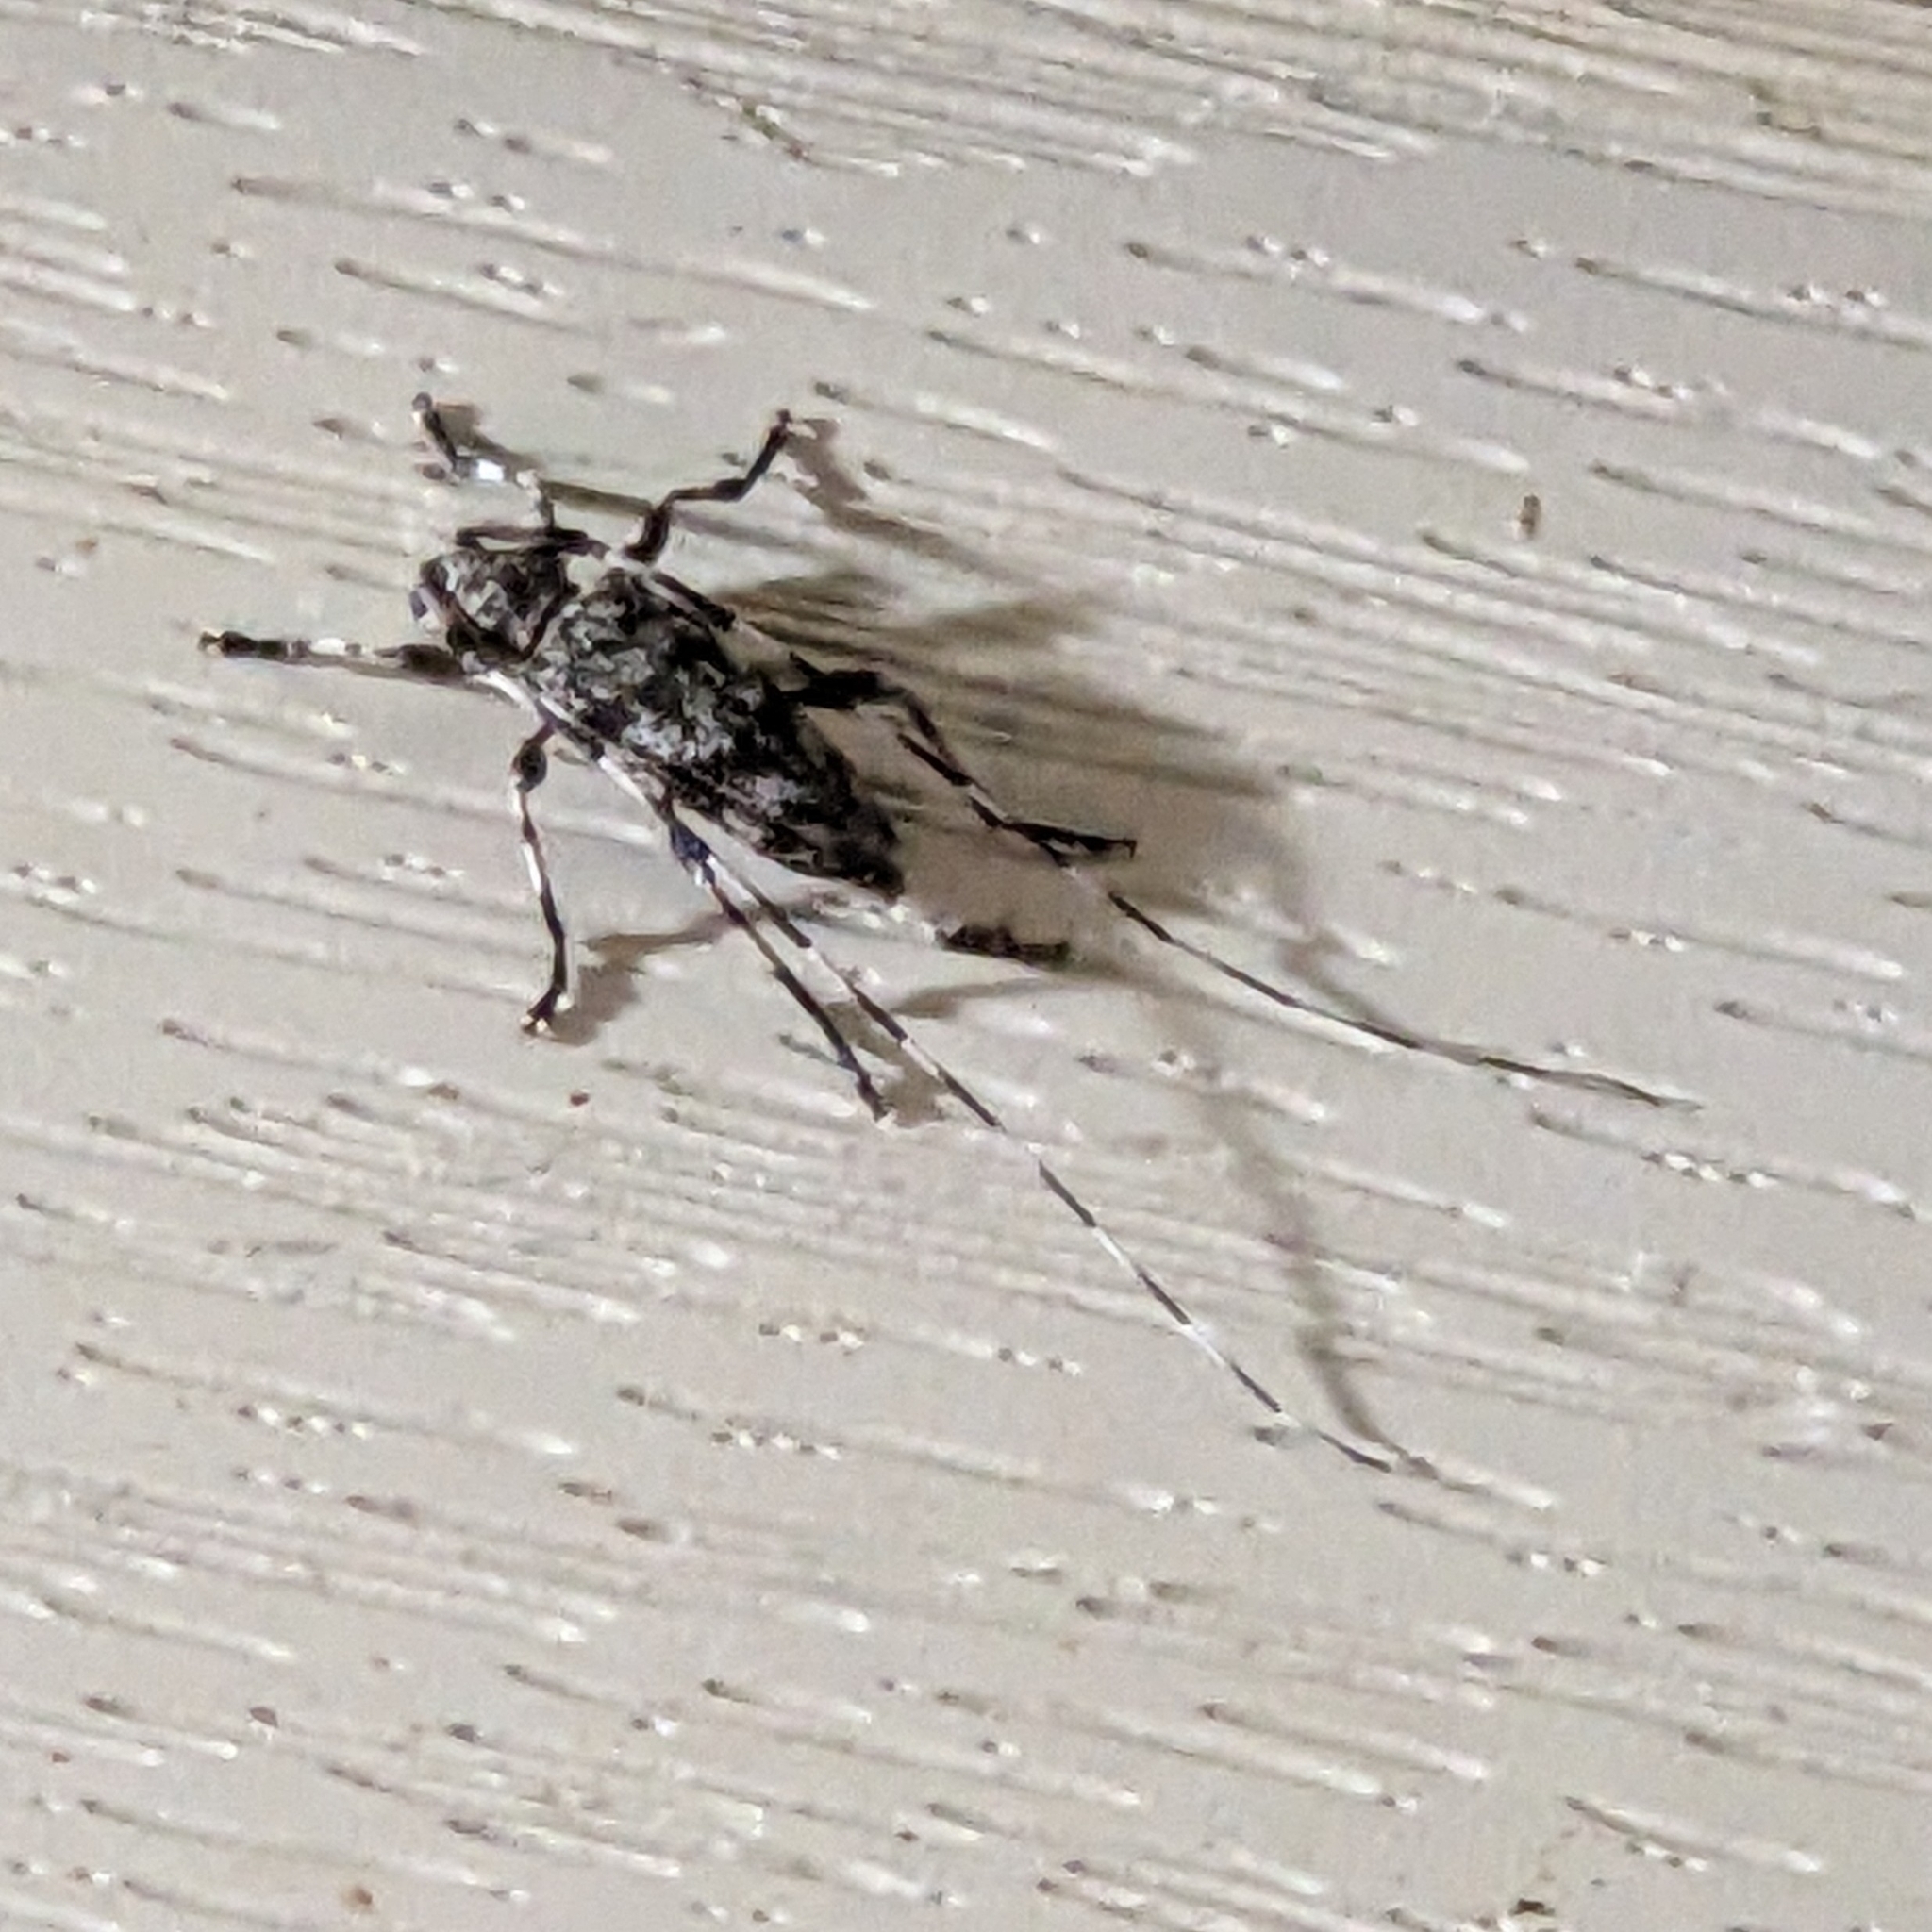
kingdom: Animalia
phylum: Arthropoda
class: Insecta
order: Coleoptera
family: Cerambycidae
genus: Acanthocinus
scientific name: Acanthocinus obsoletus
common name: Roundheaded borer
